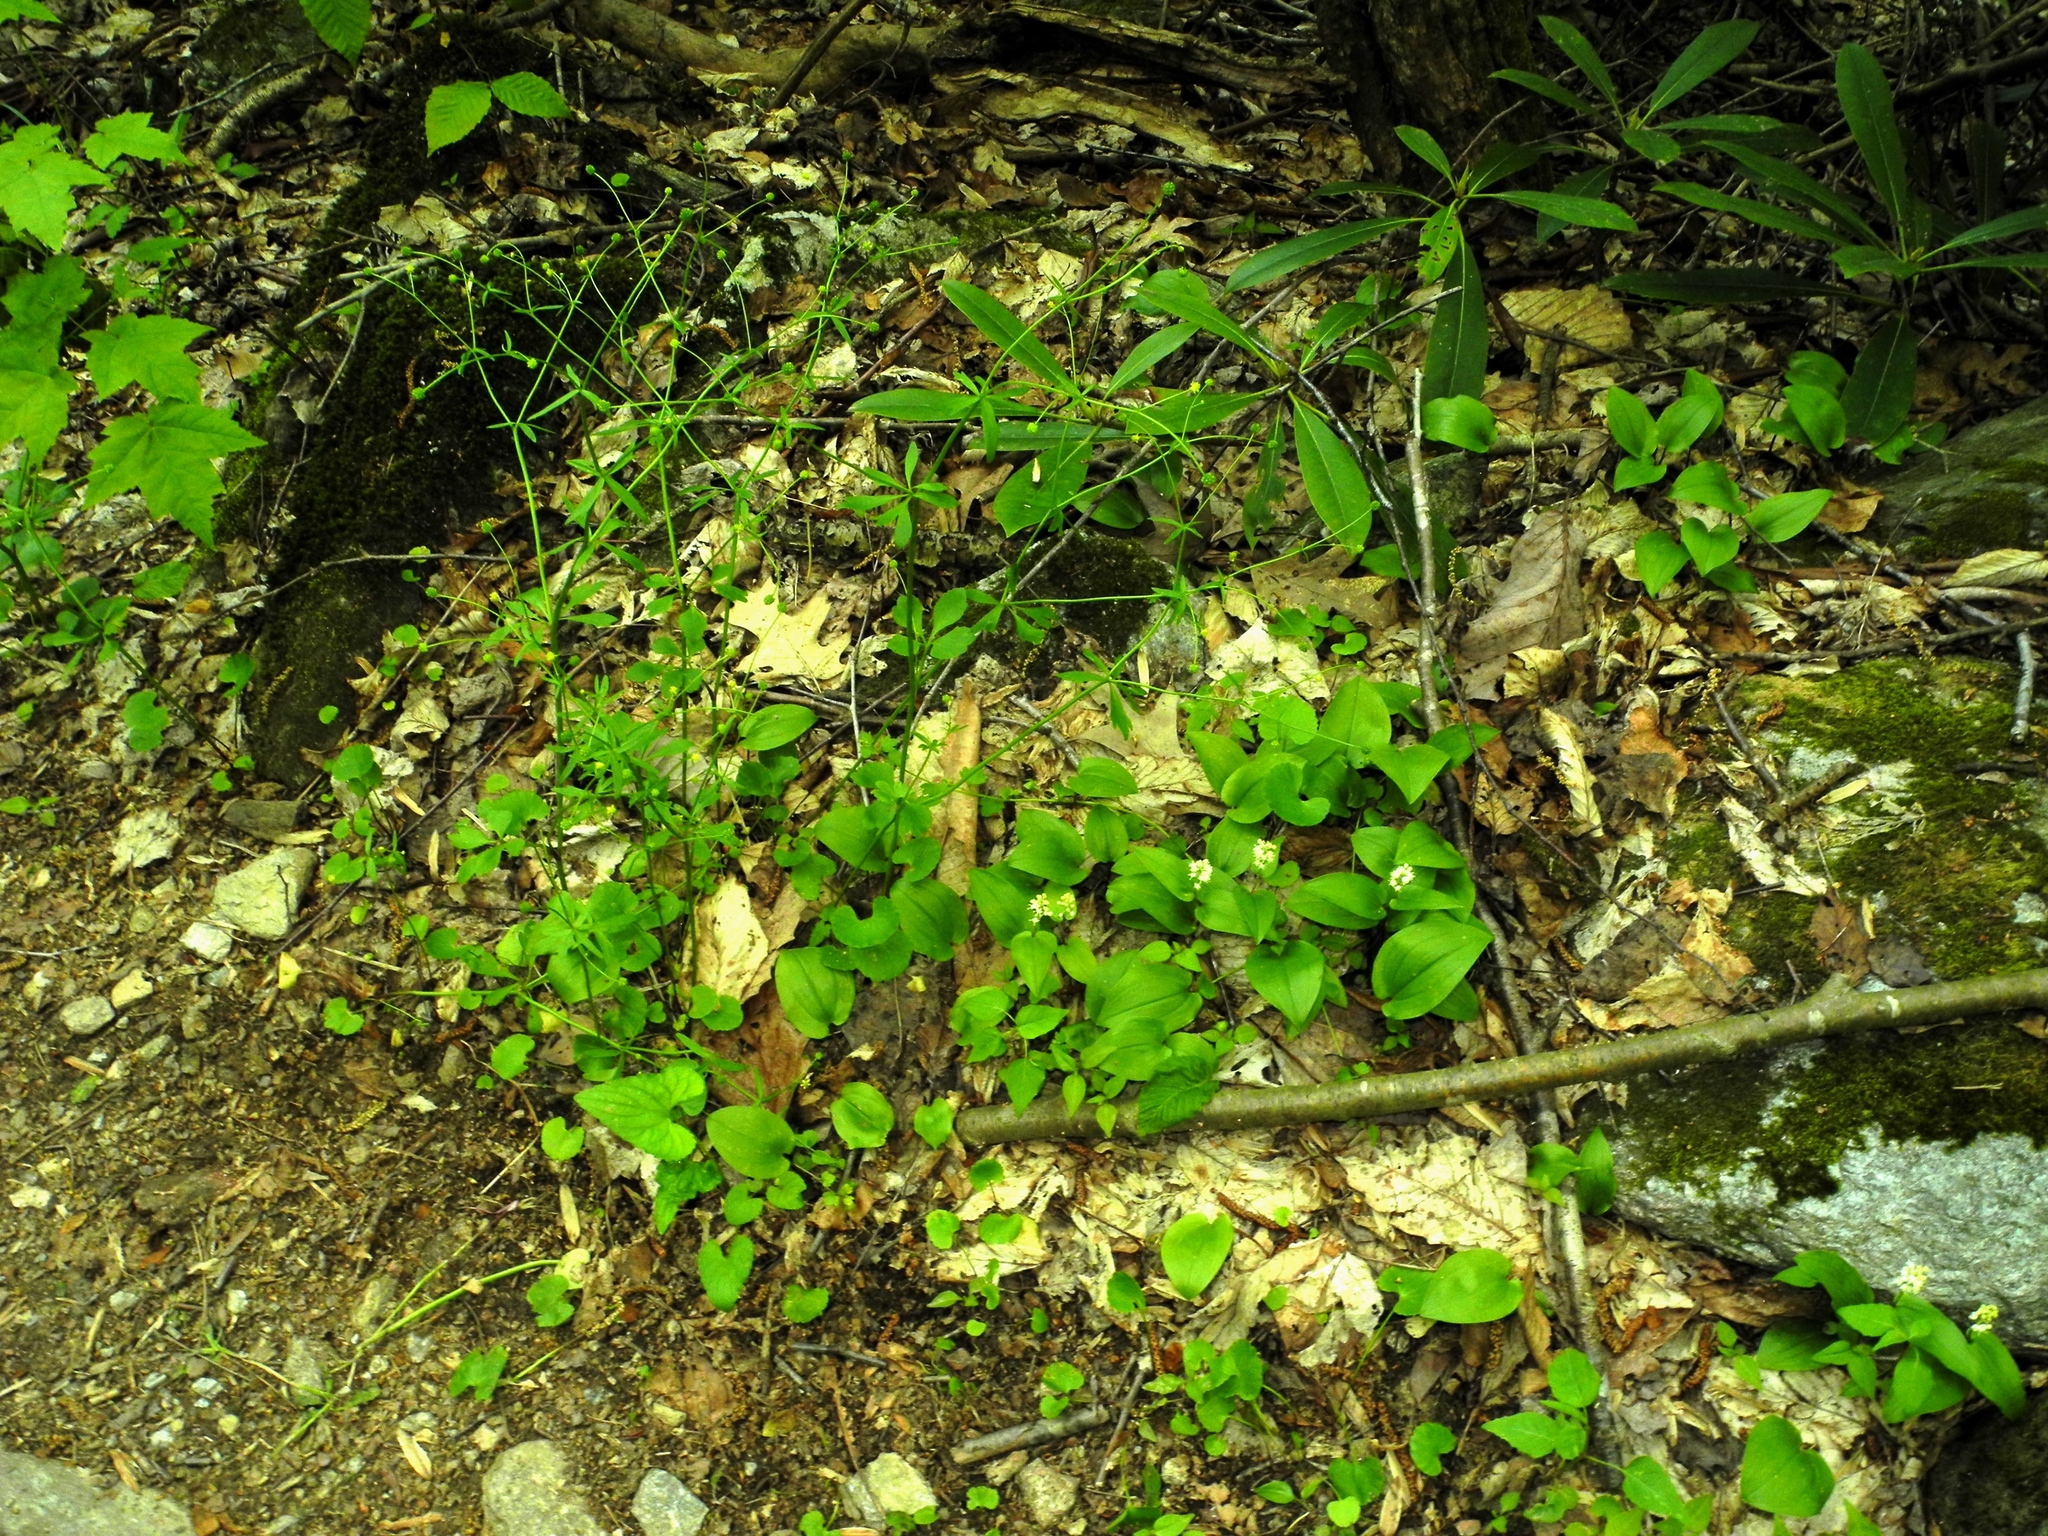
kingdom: Plantae
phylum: Tracheophyta
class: Magnoliopsida
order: Ranunculales
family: Ranunculaceae
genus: Ranunculus
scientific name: Ranunculus abortivus
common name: Early wood buttercup
